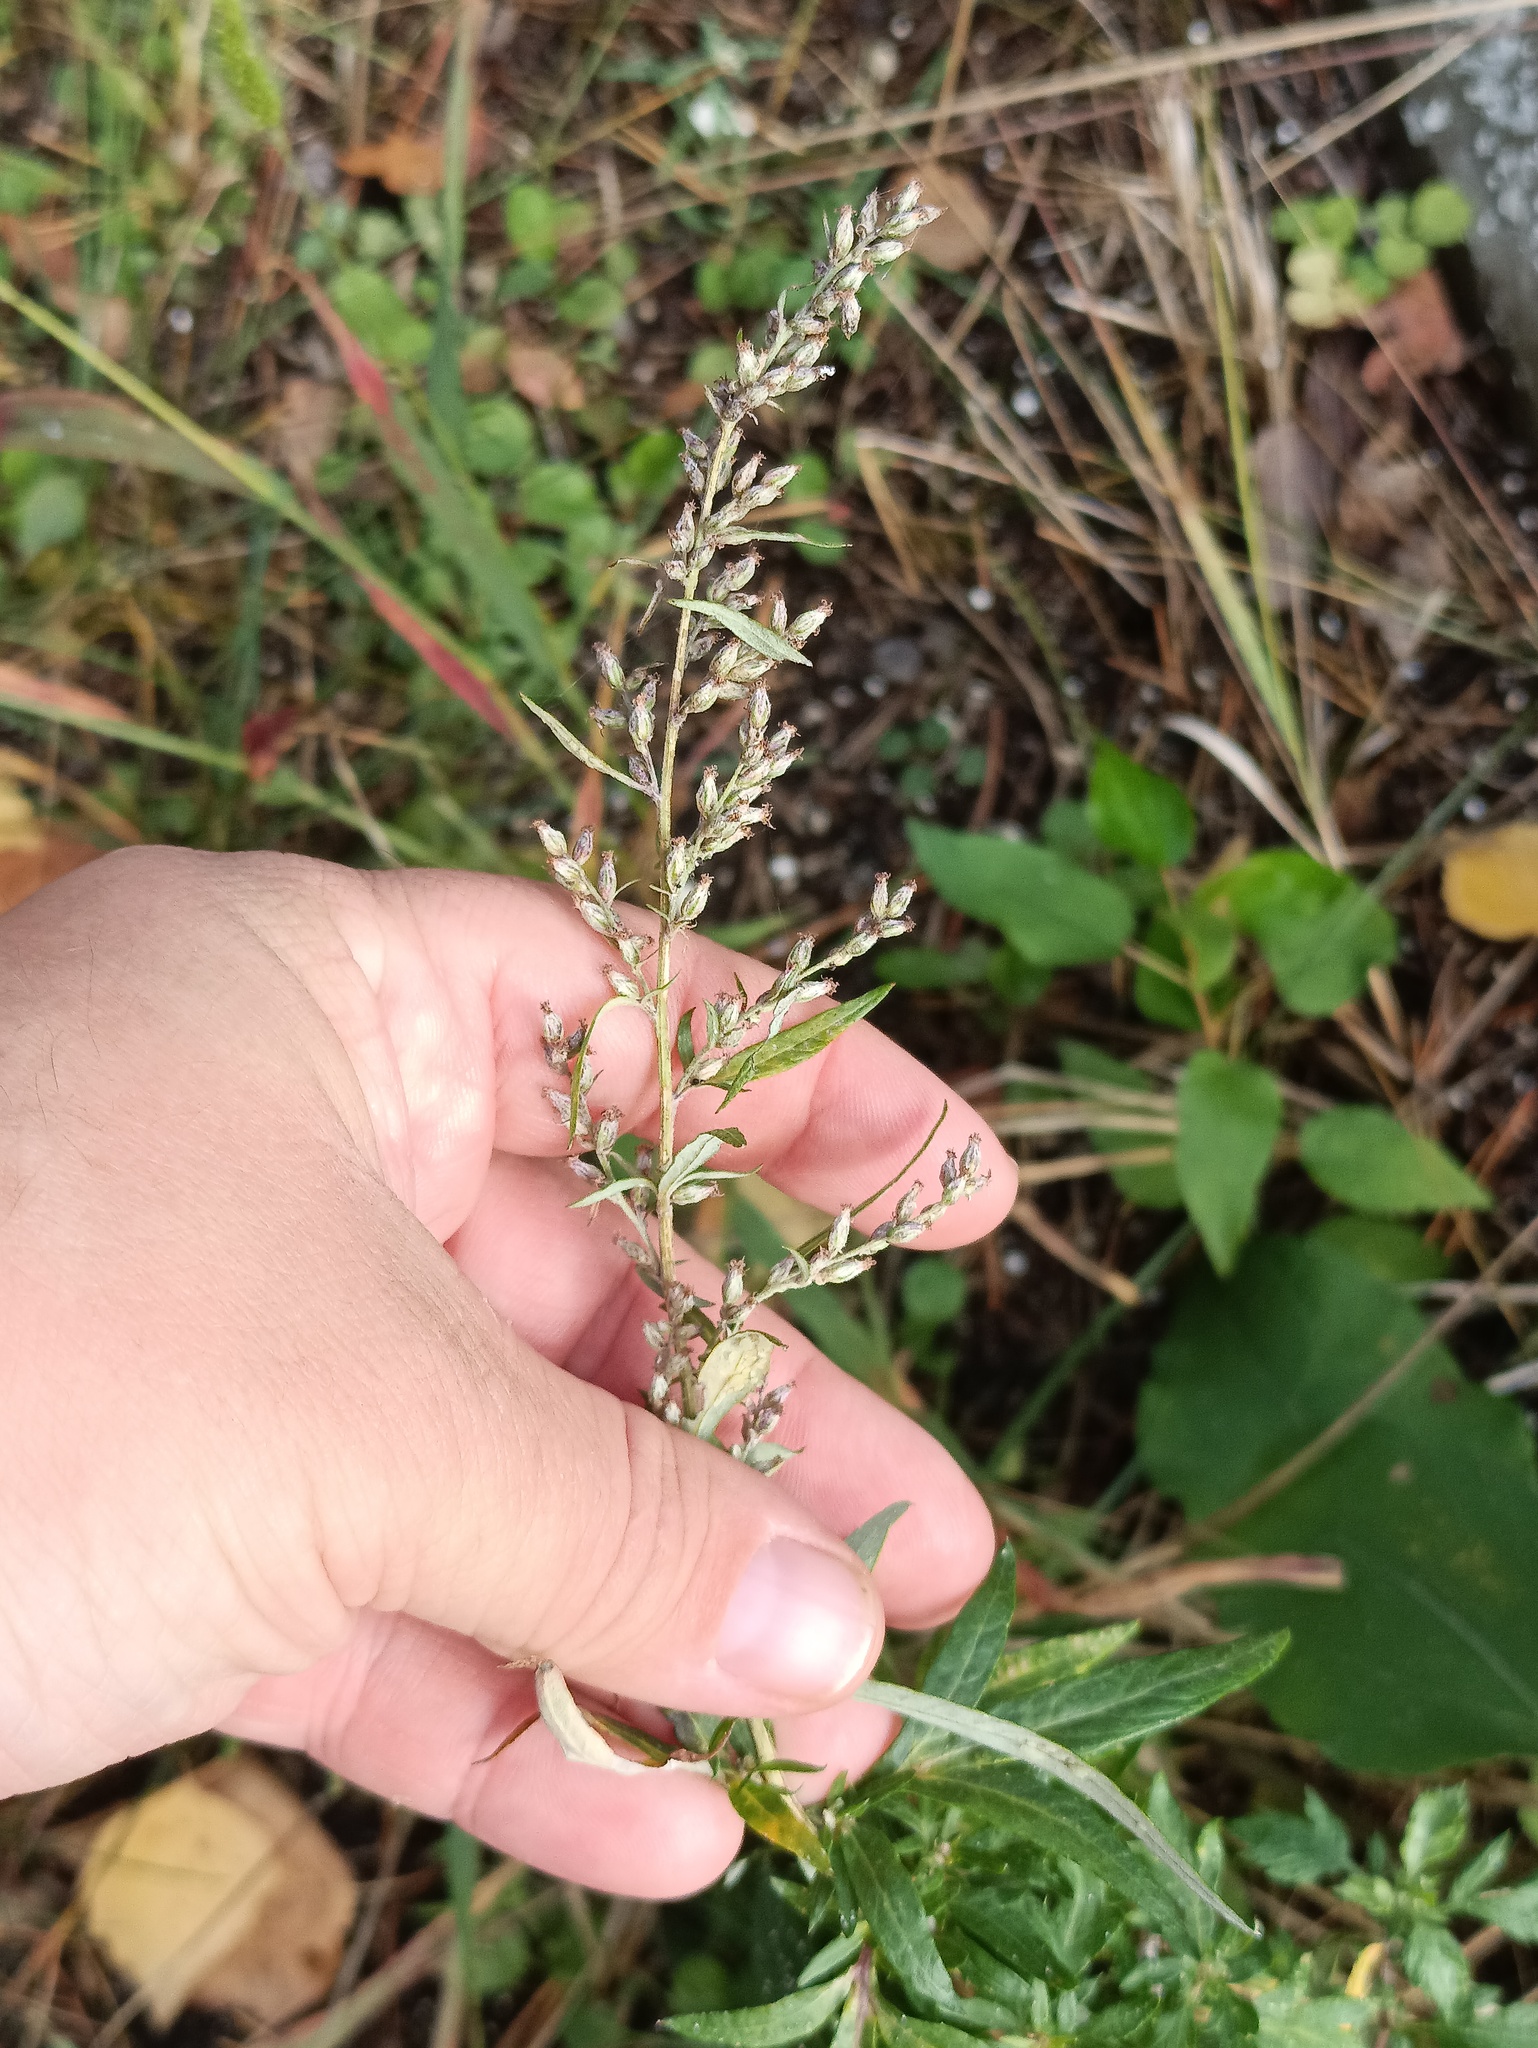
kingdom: Plantae
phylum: Tracheophyta
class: Magnoliopsida
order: Asterales
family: Asteraceae
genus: Artemisia
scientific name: Artemisia vulgaris
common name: Mugwort
